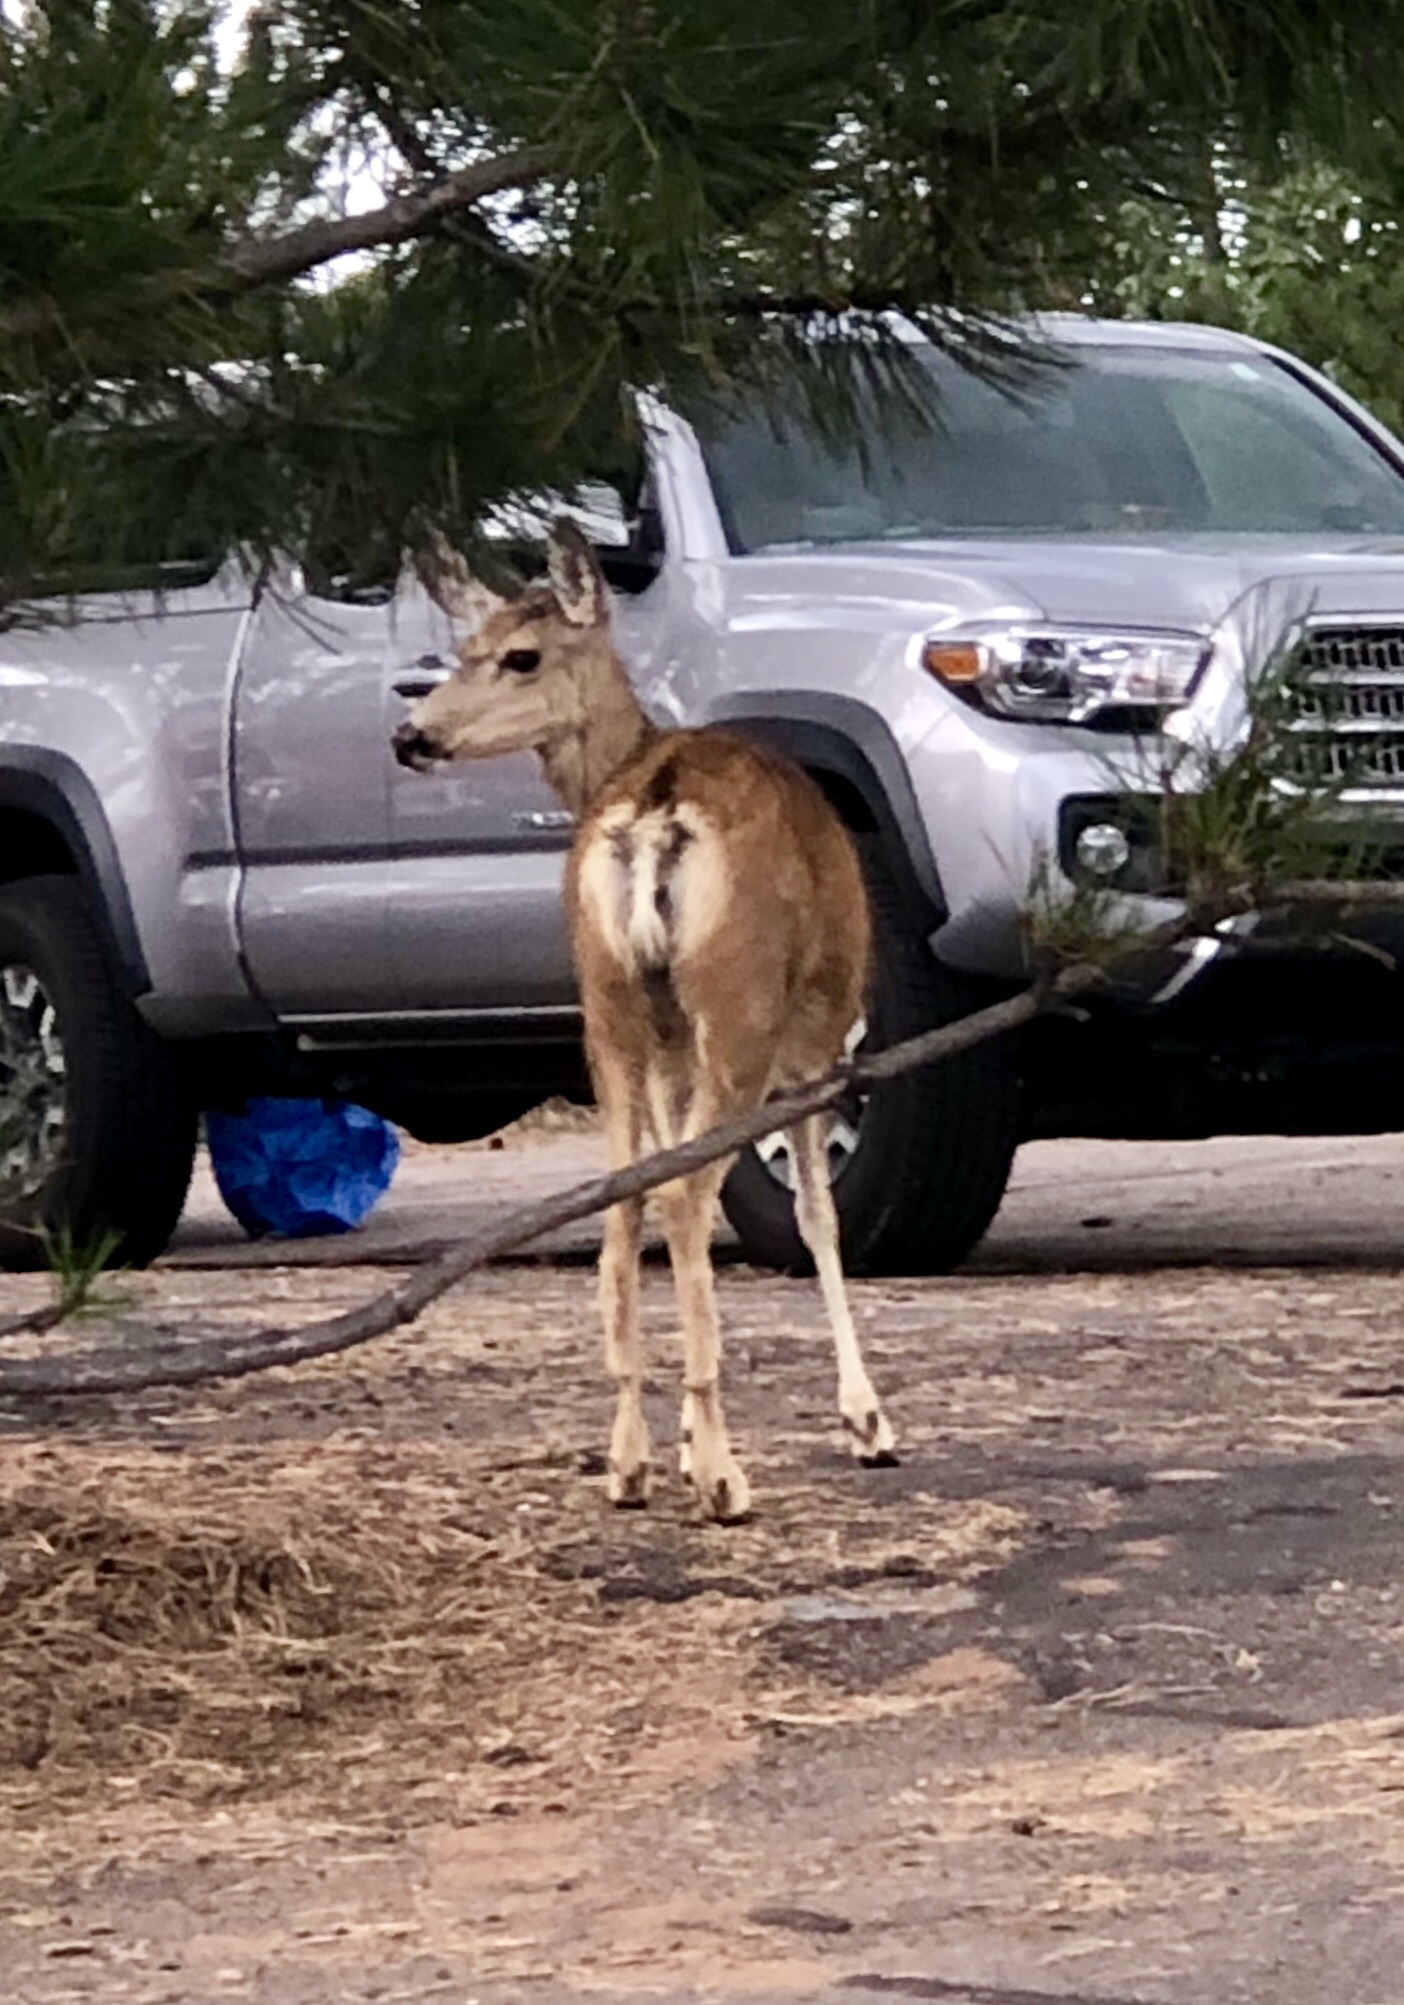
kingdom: Animalia
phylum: Chordata
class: Mammalia
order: Artiodactyla
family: Cervidae
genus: Odocoileus
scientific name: Odocoileus hemionus
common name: Mule deer
